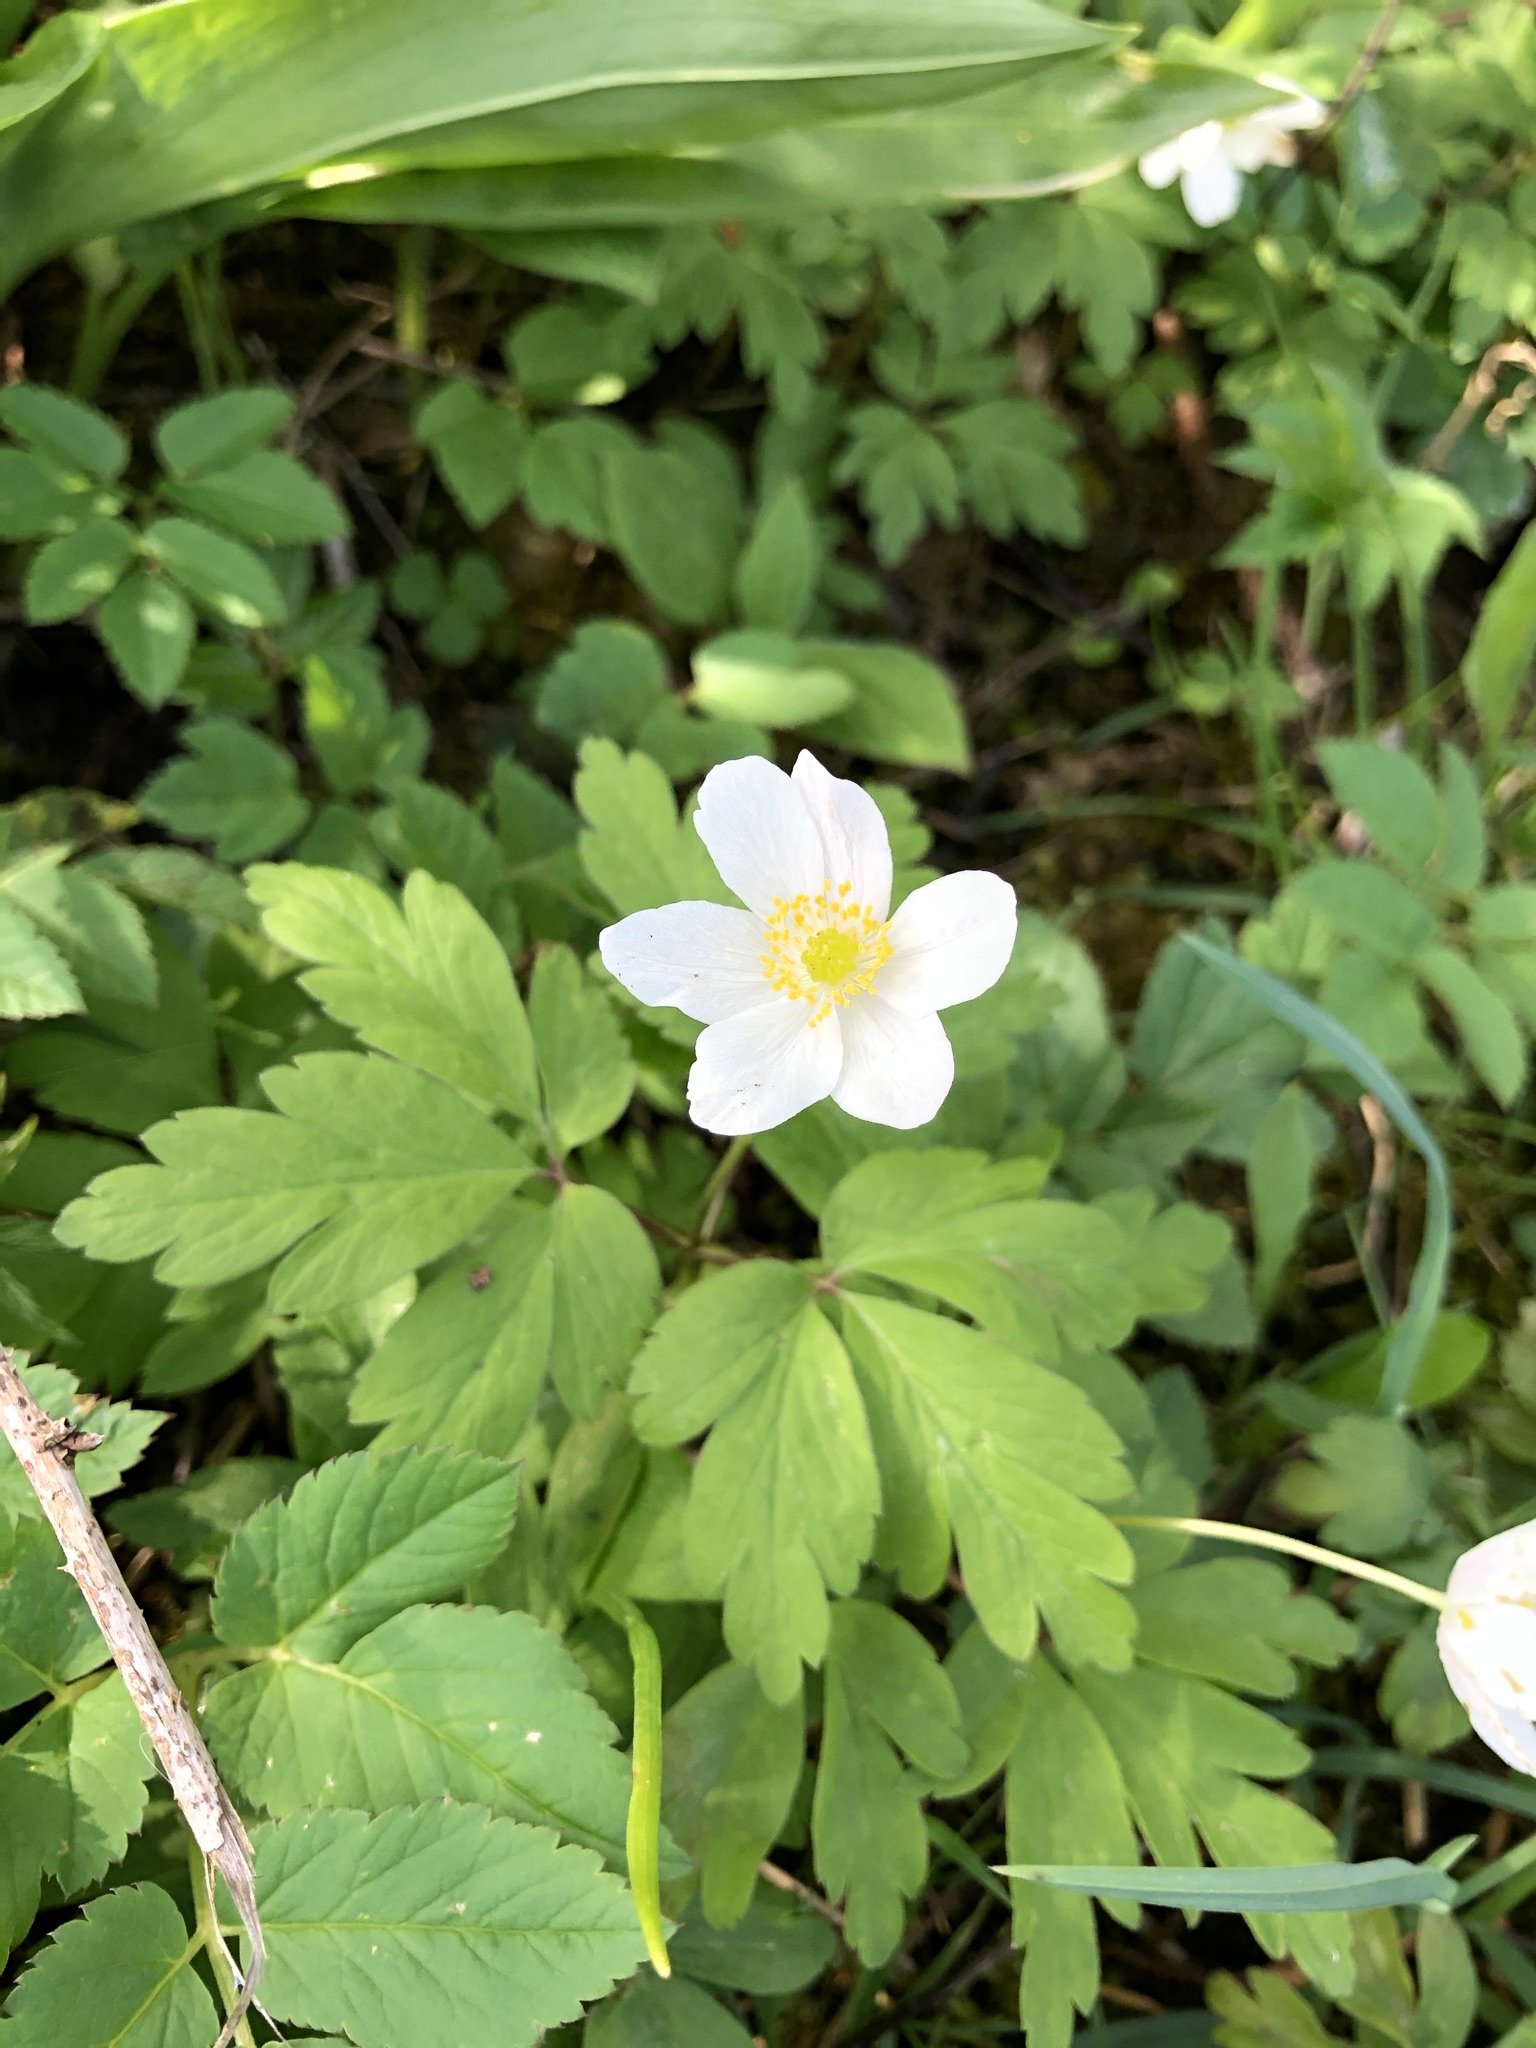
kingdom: Plantae
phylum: Tracheophyta
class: Magnoliopsida
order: Ranunculales
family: Ranunculaceae
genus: Anemone
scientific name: Anemone nemorosa
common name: Wood anemone
